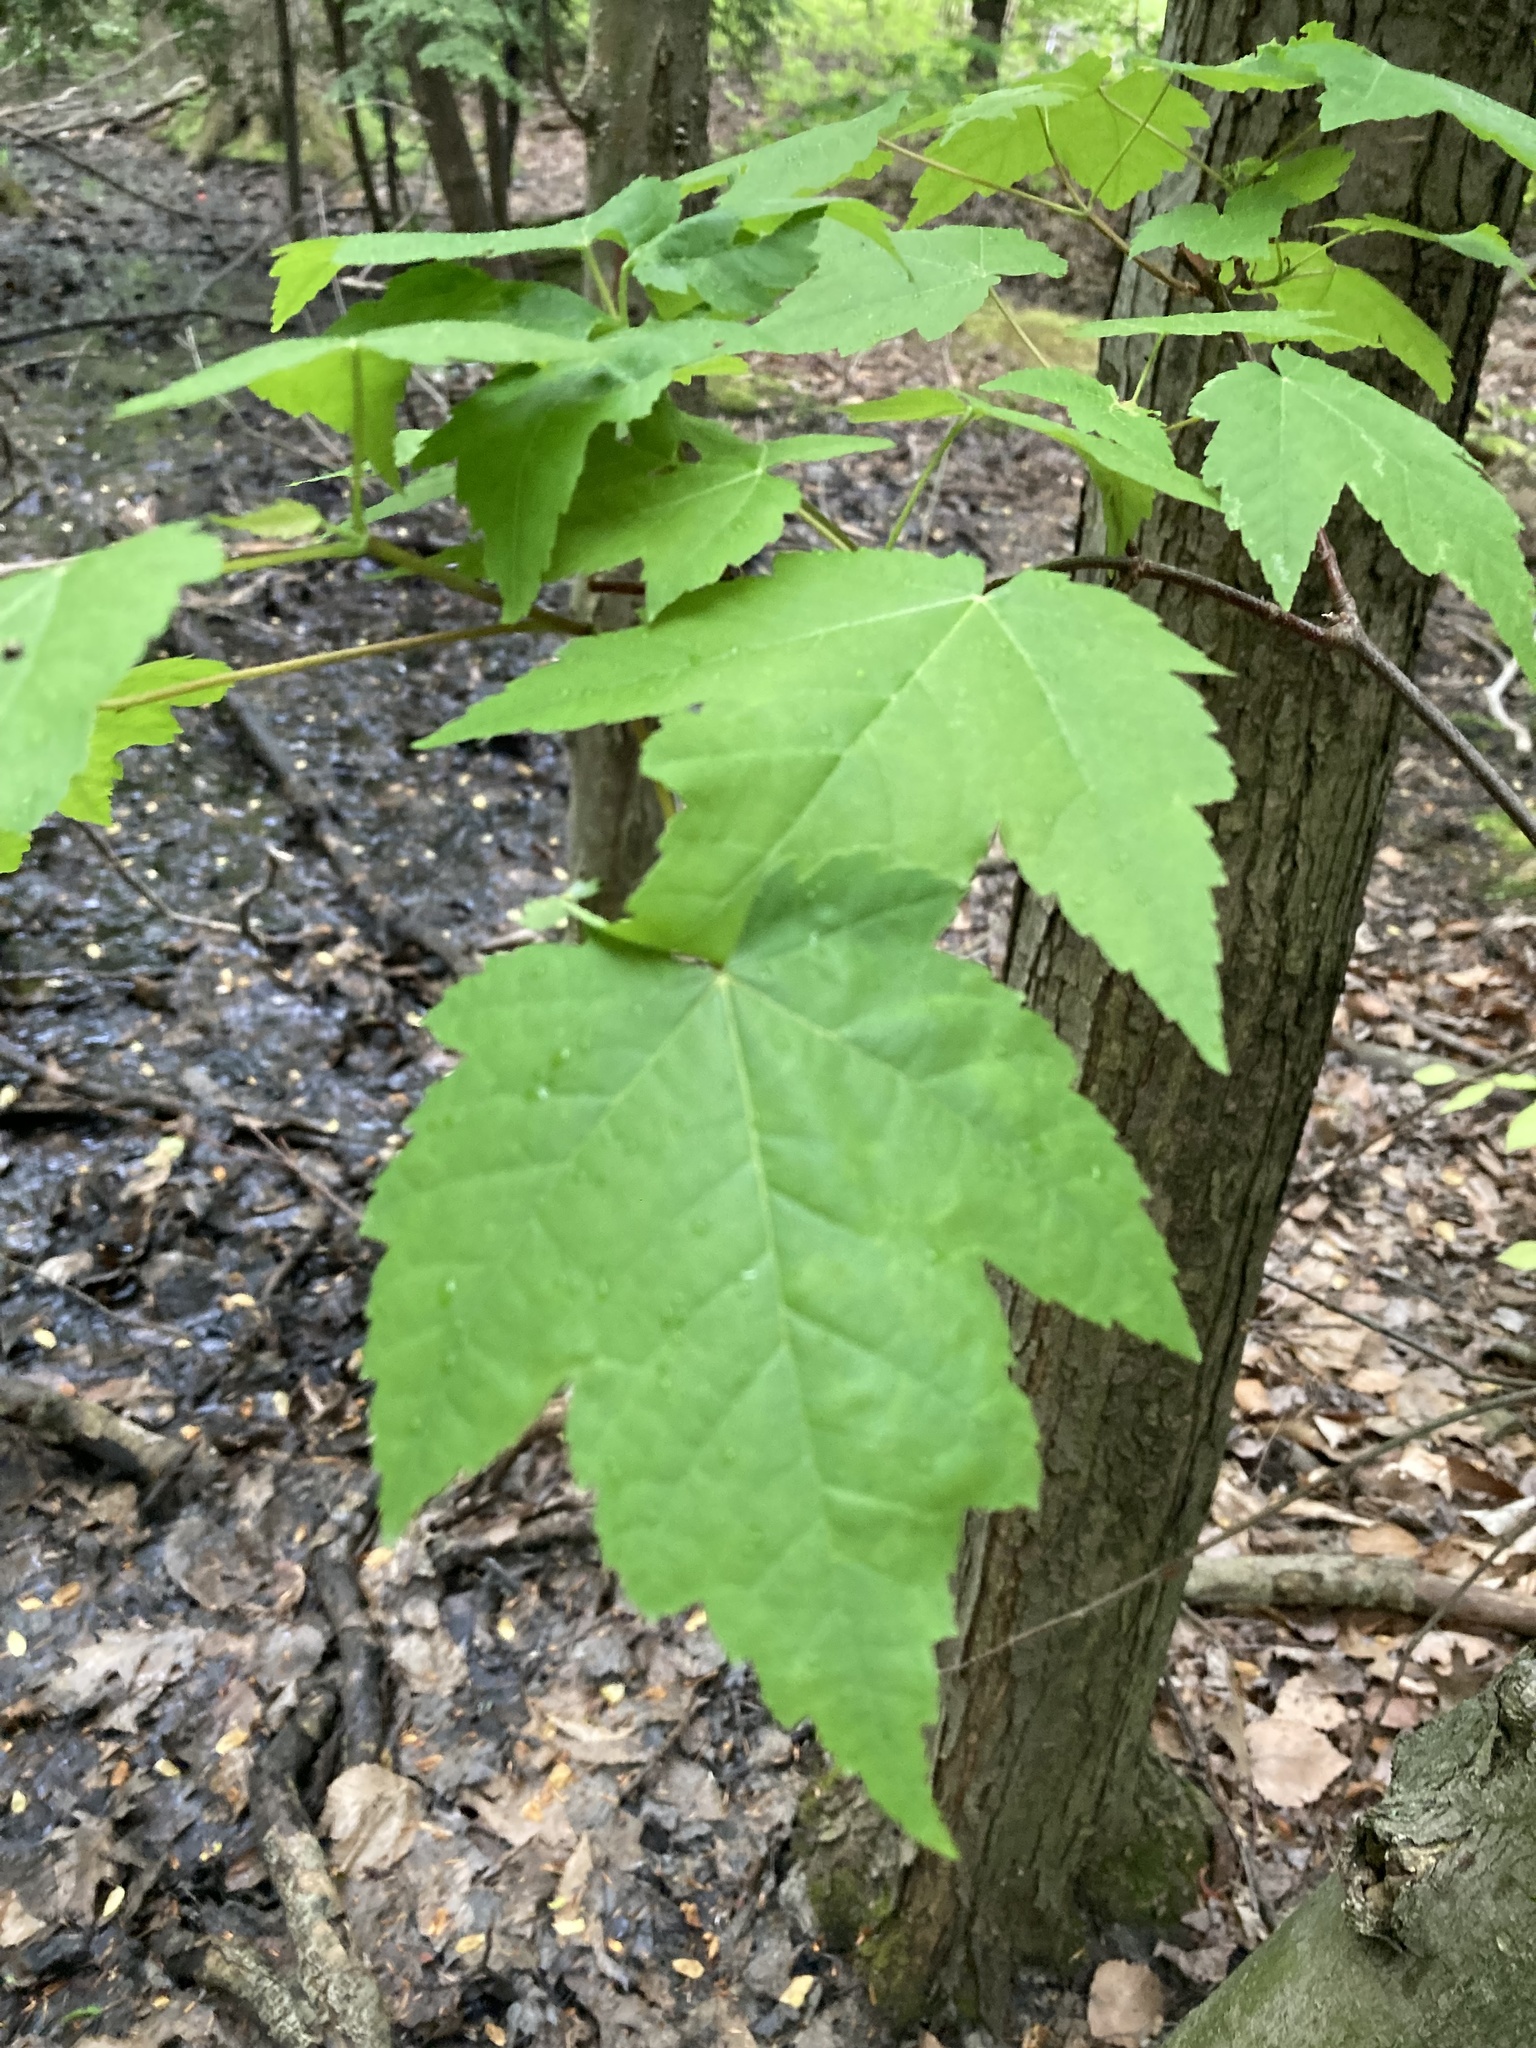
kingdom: Plantae
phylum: Tracheophyta
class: Magnoliopsida
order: Sapindales
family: Sapindaceae
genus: Acer
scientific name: Acer rubrum
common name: Red maple
